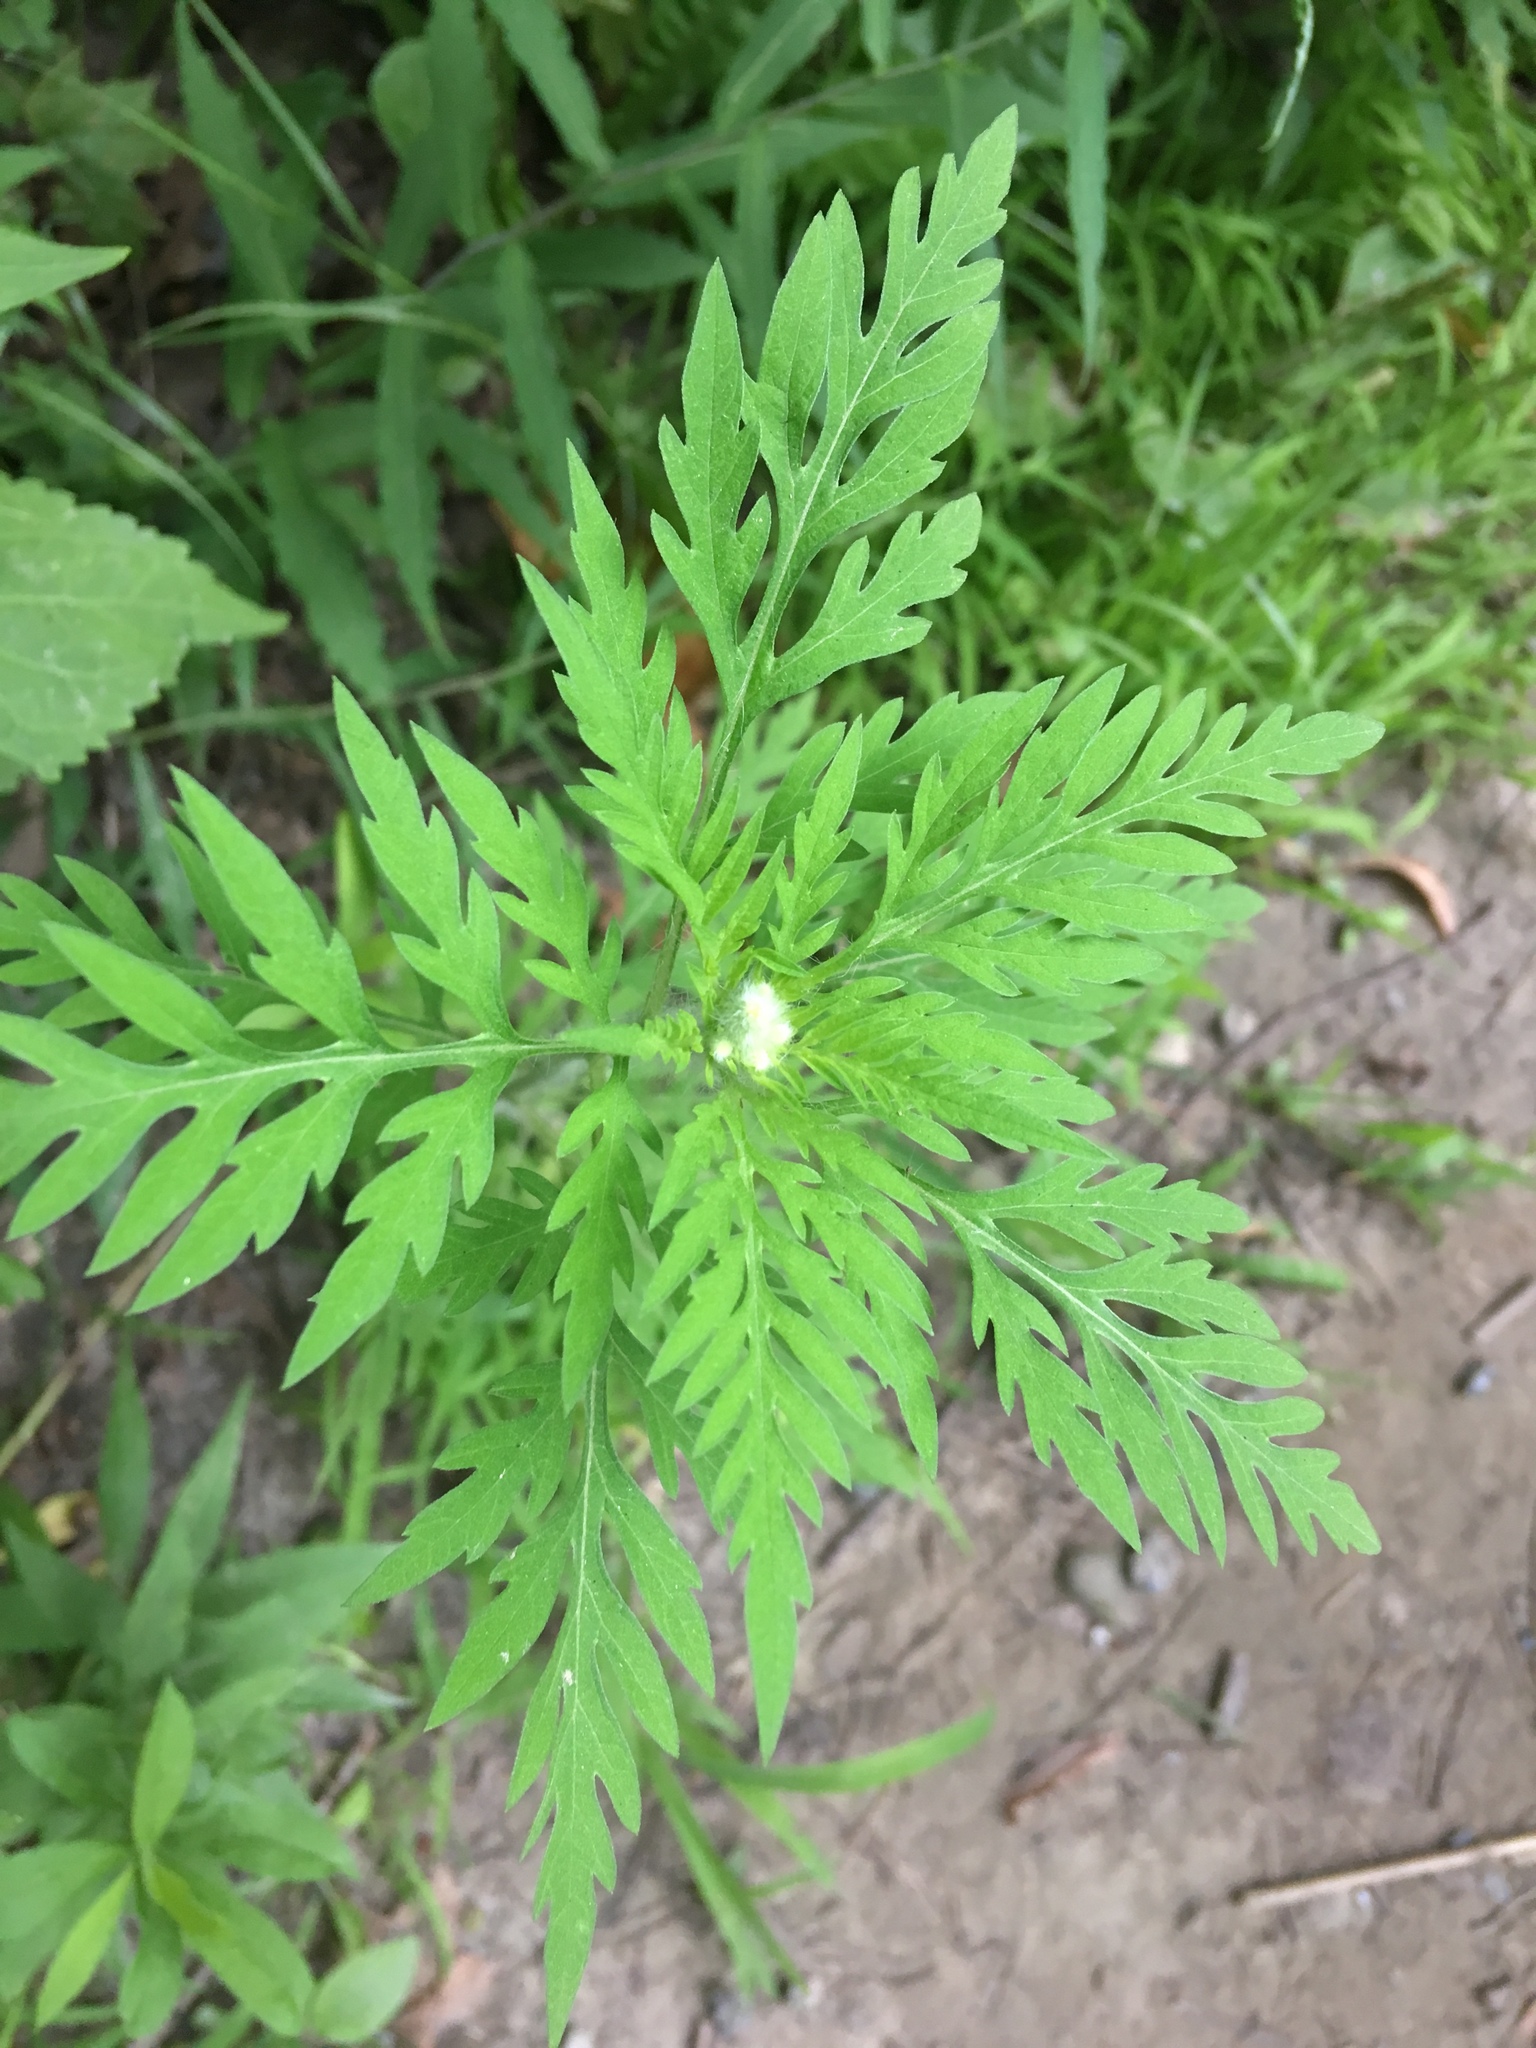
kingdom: Plantae
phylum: Tracheophyta
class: Magnoliopsida
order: Asterales
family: Asteraceae
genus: Ambrosia
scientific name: Ambrosia artemisiifolia
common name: Annual ragweed
